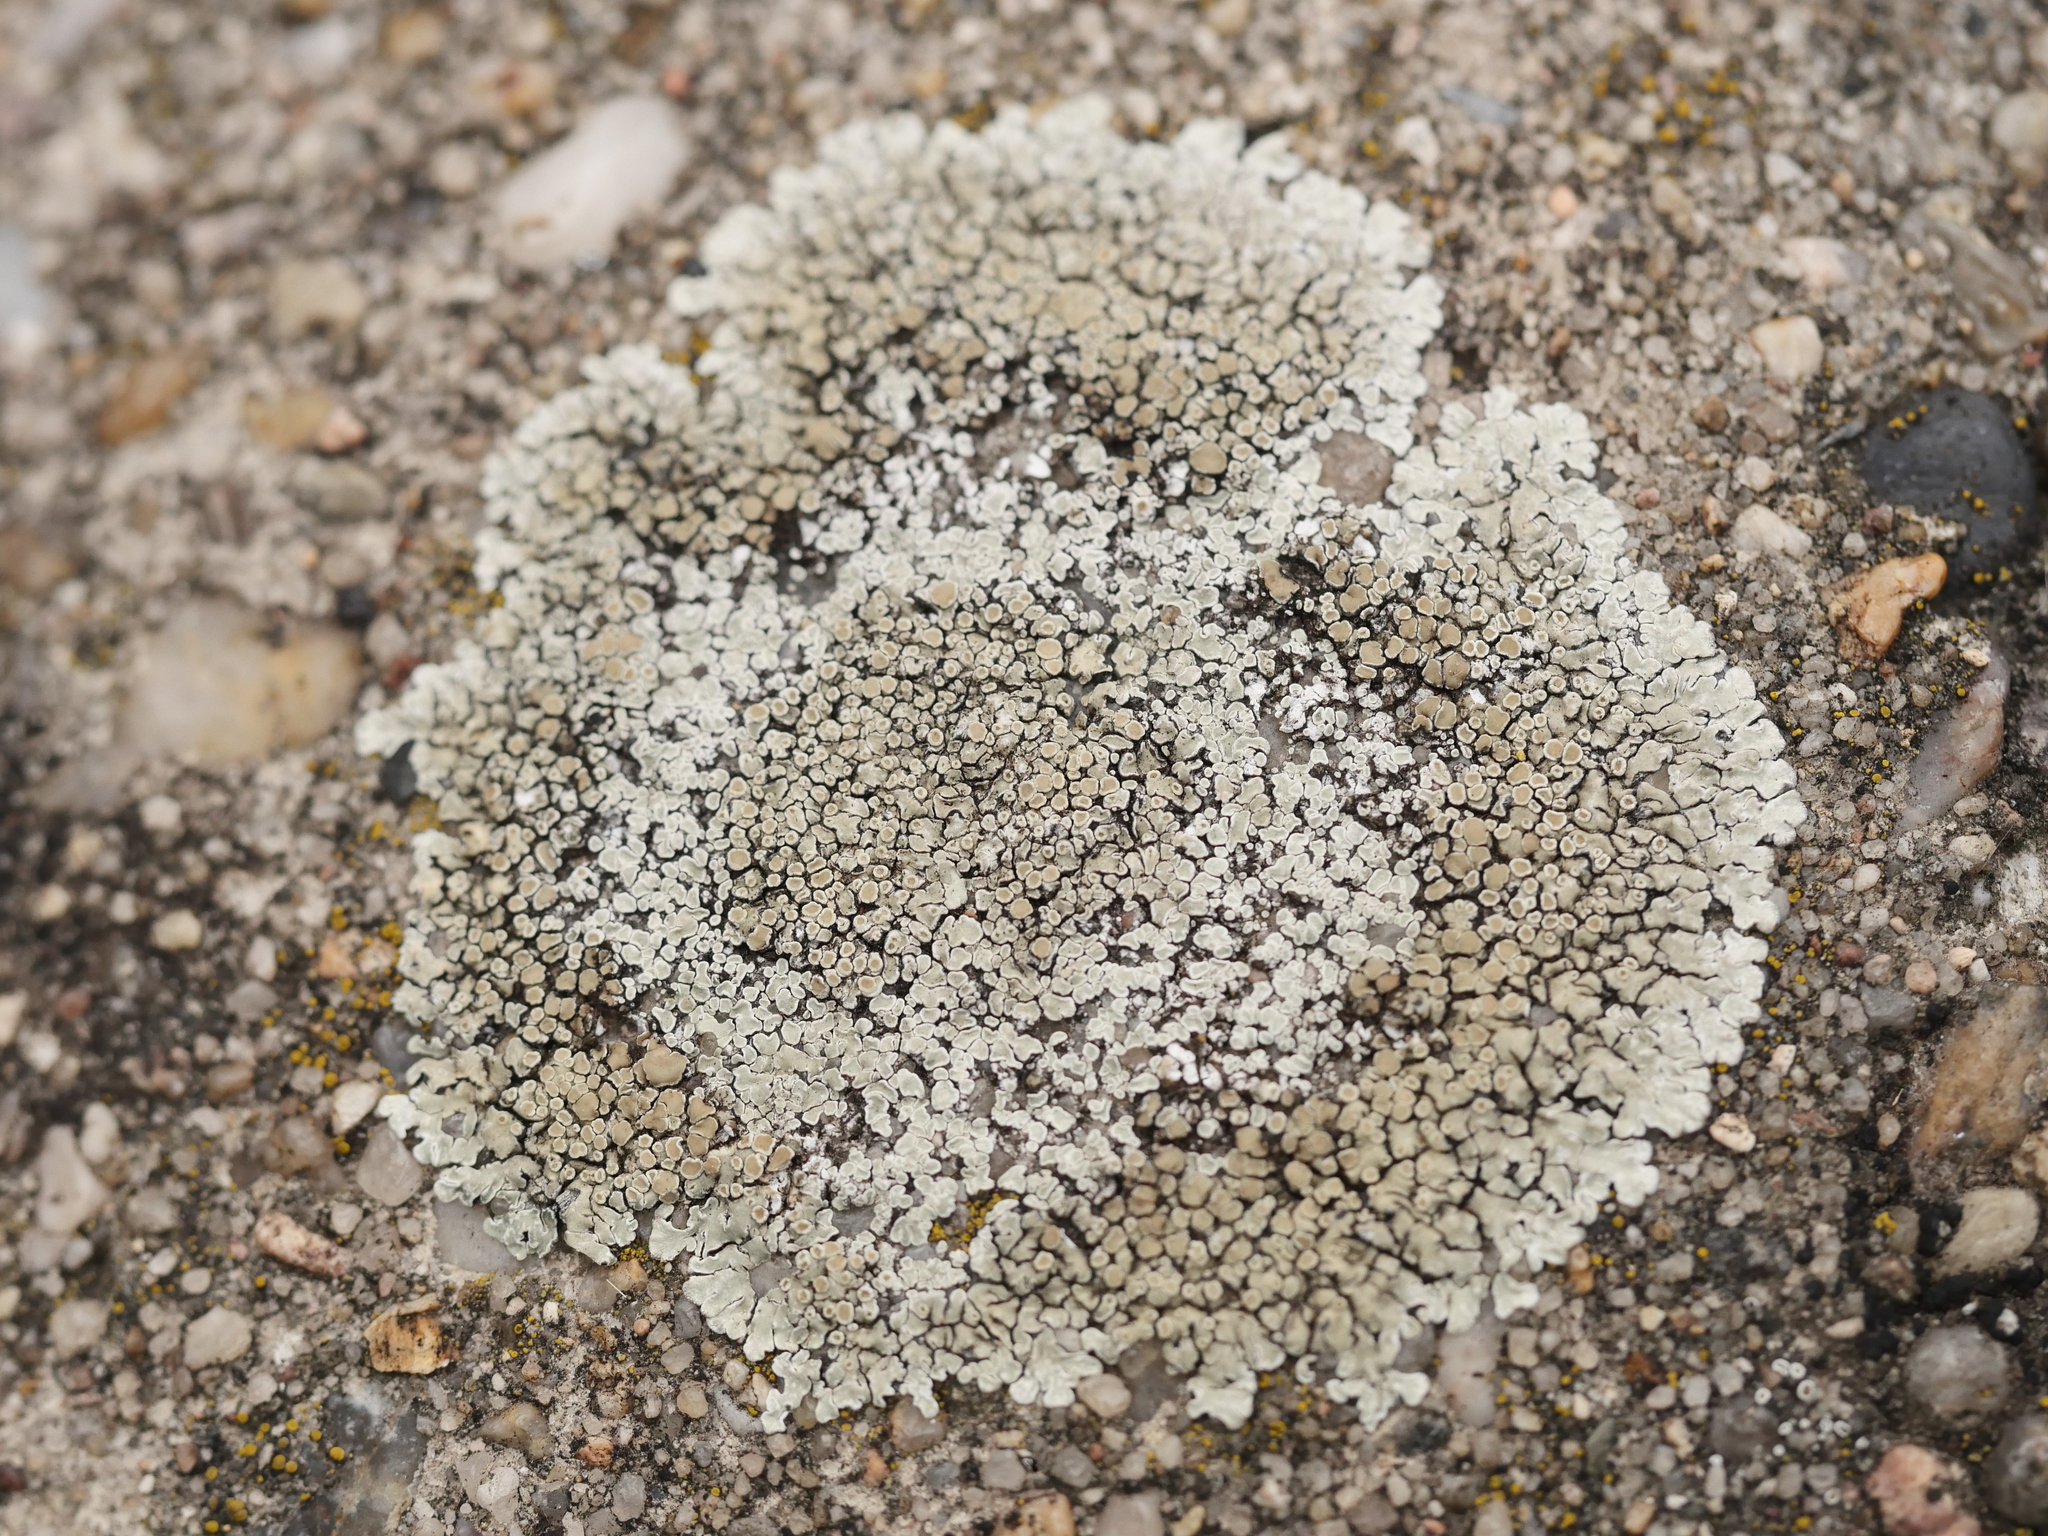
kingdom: Fungi
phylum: Ascomycota
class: Lecanoromycetes
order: Lecanorales
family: Lecanoraceae
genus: Protoparmeliopsis
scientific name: Protoparmeliopsis muralis
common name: Stonewall rim lichen
